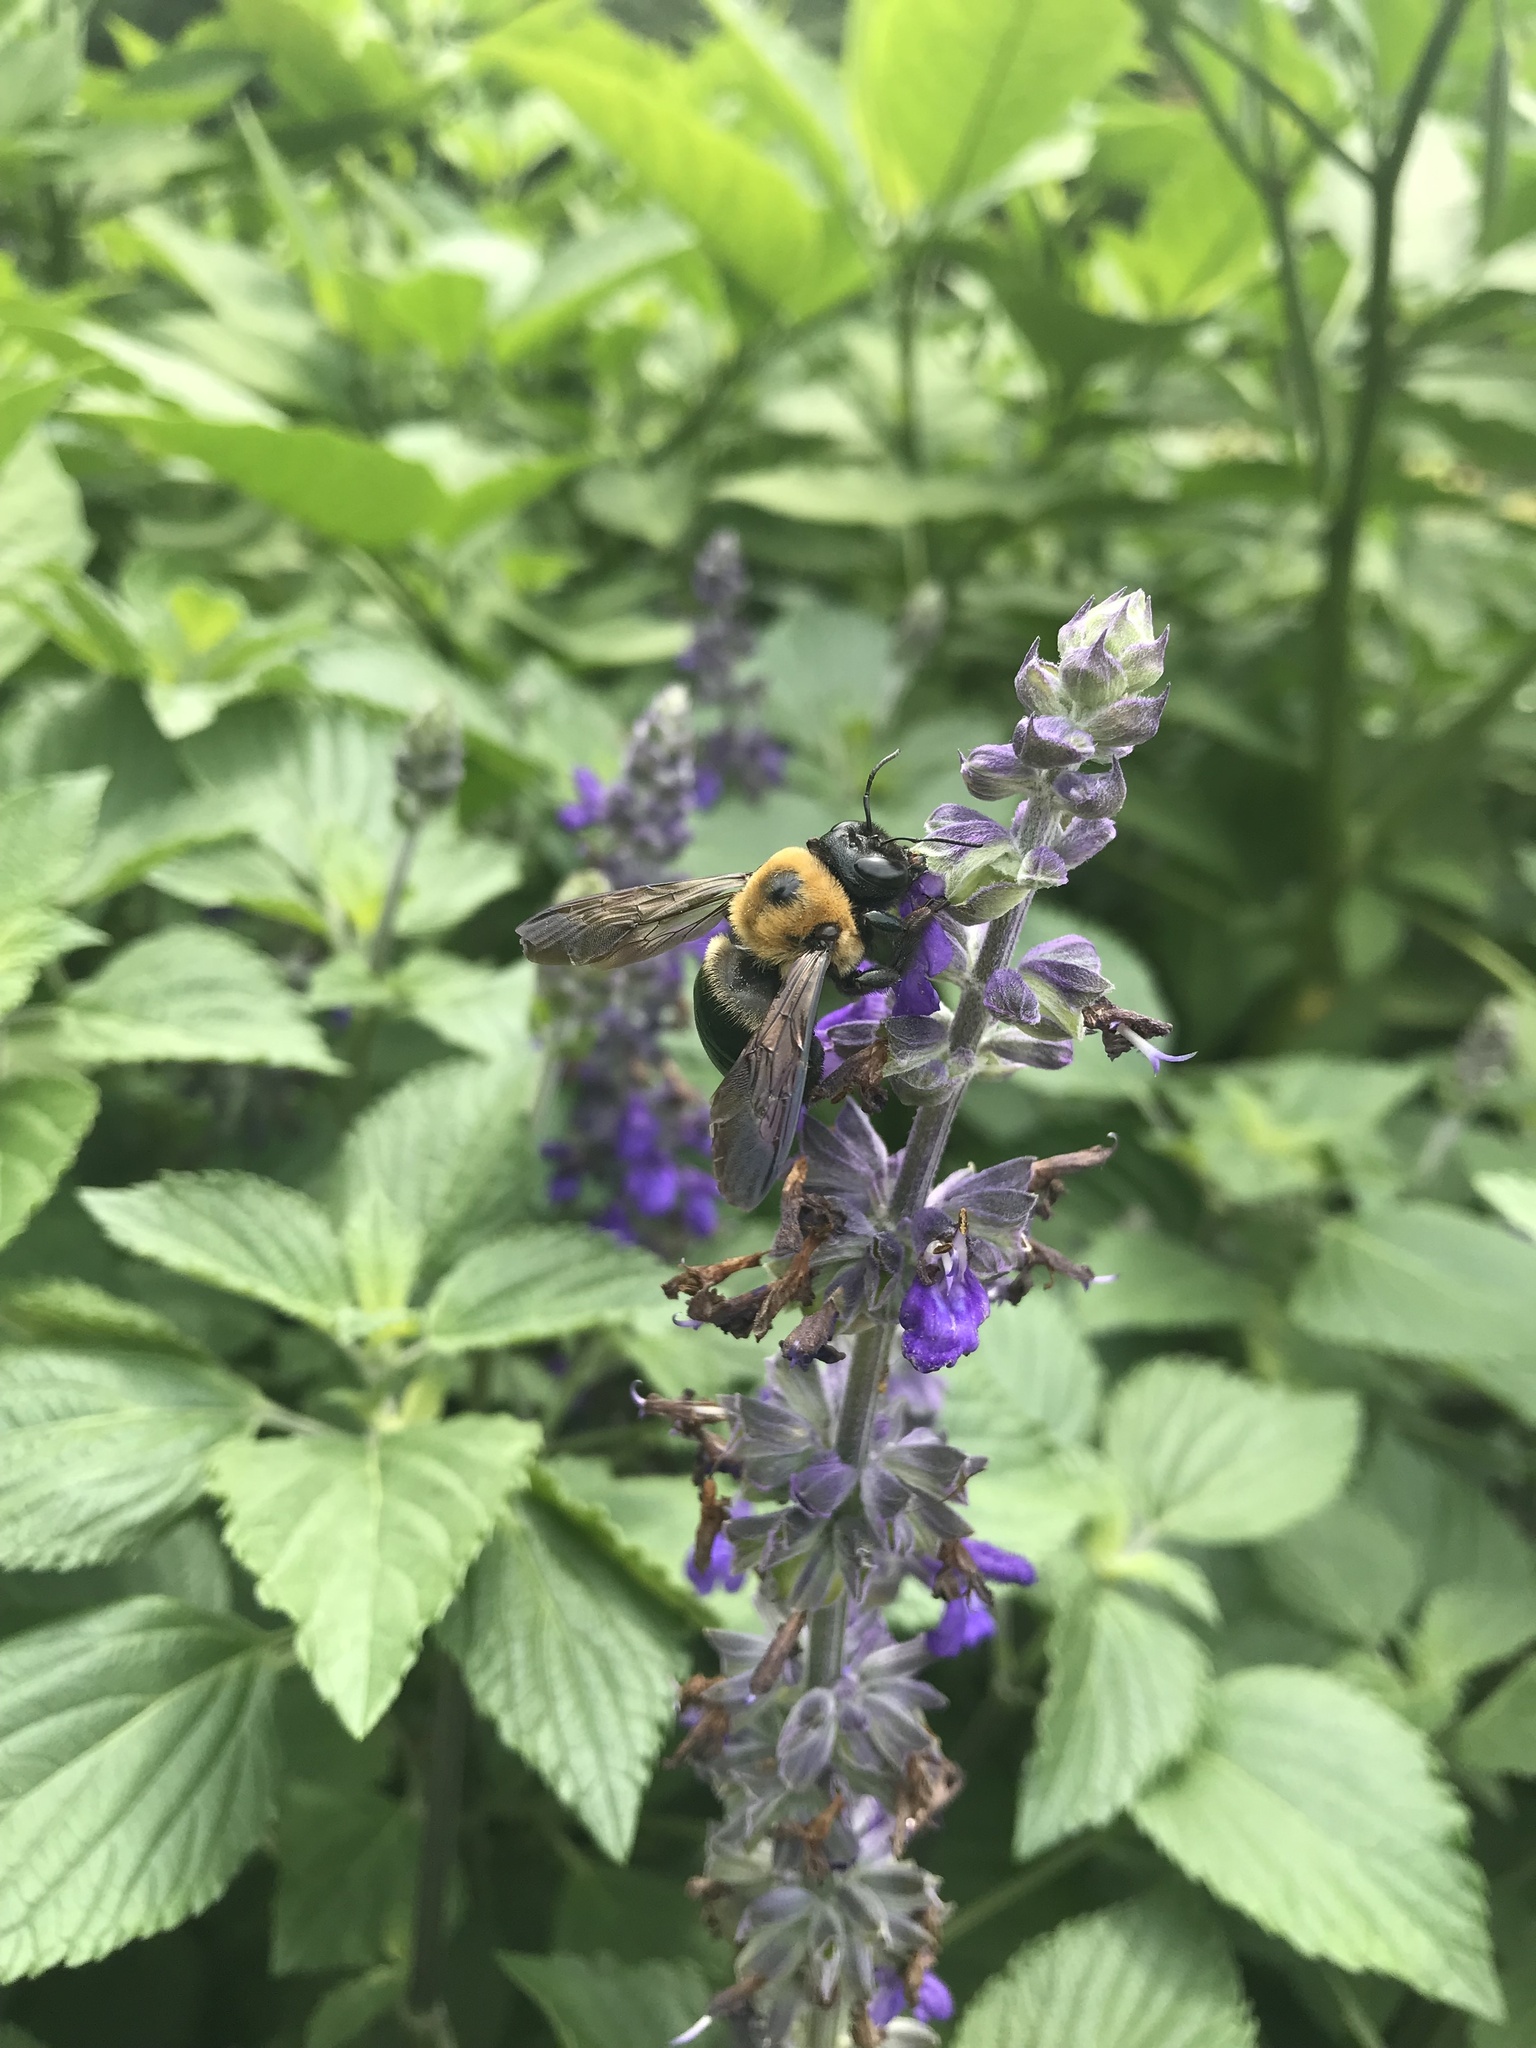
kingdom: Animalia
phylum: Arthropoda
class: Insecta
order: Hymenoptera
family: Apidae
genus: Xylocopa
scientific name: Xylocopa virginica
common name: Carpenter bee
